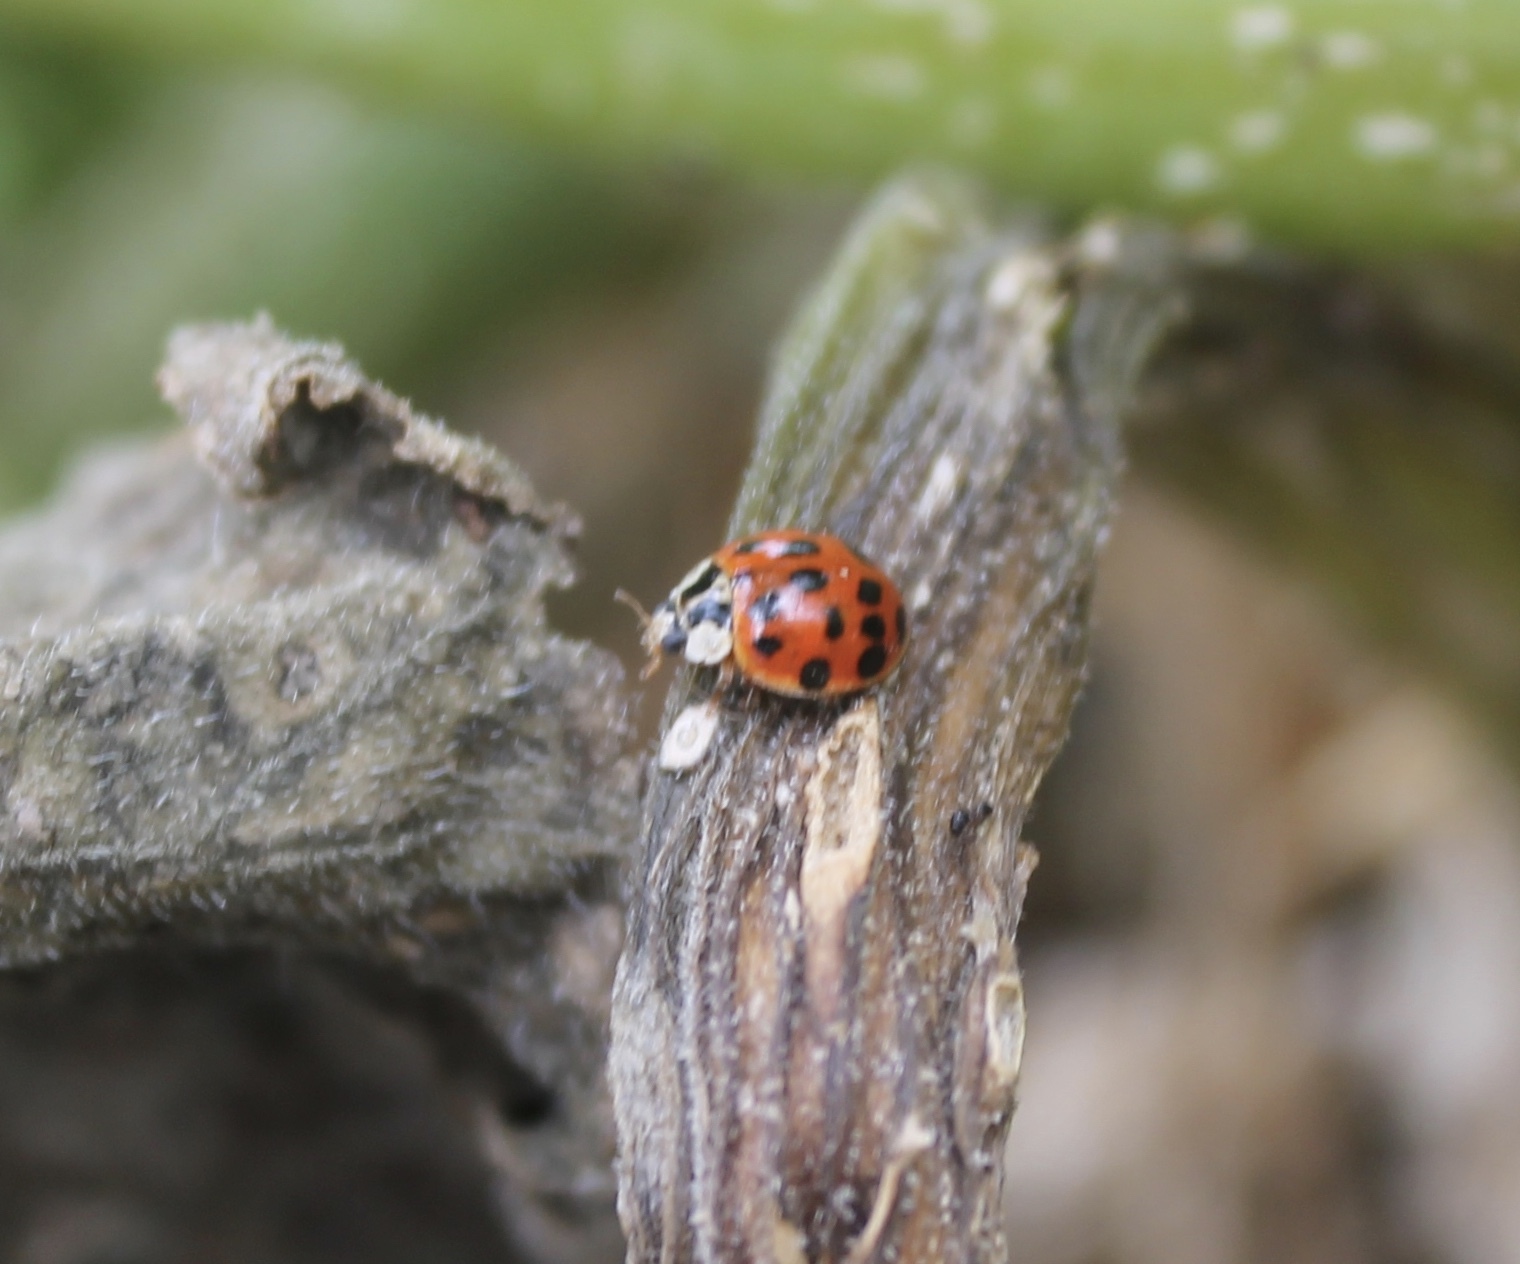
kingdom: Animalia
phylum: Arthropoda
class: Insecta
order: Coleoptera
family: Coccinellidae
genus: Harmonia
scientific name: Harmonia axyridis
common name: Harlequin ladybird
